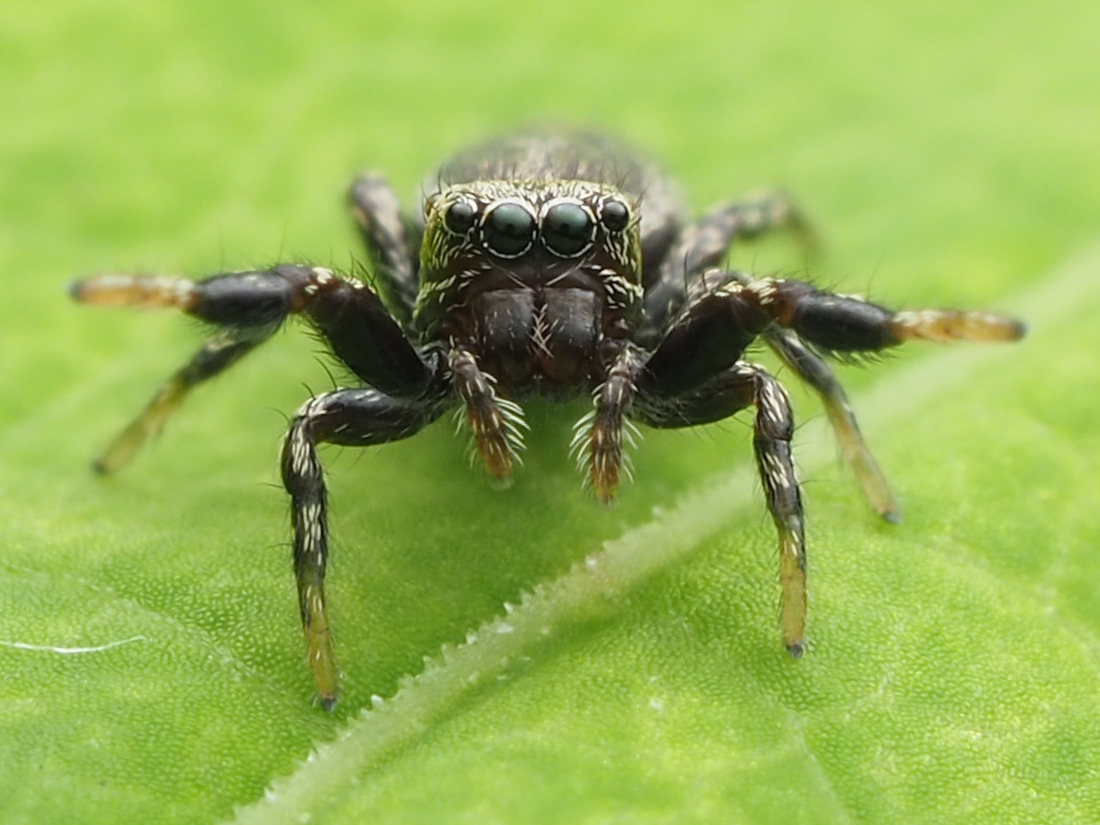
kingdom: Animalia
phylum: Arthropoda
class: Arachnida
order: Araneae
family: Salticidae
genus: Tutelina
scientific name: Tutelina harti
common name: Hart's jumping spider
